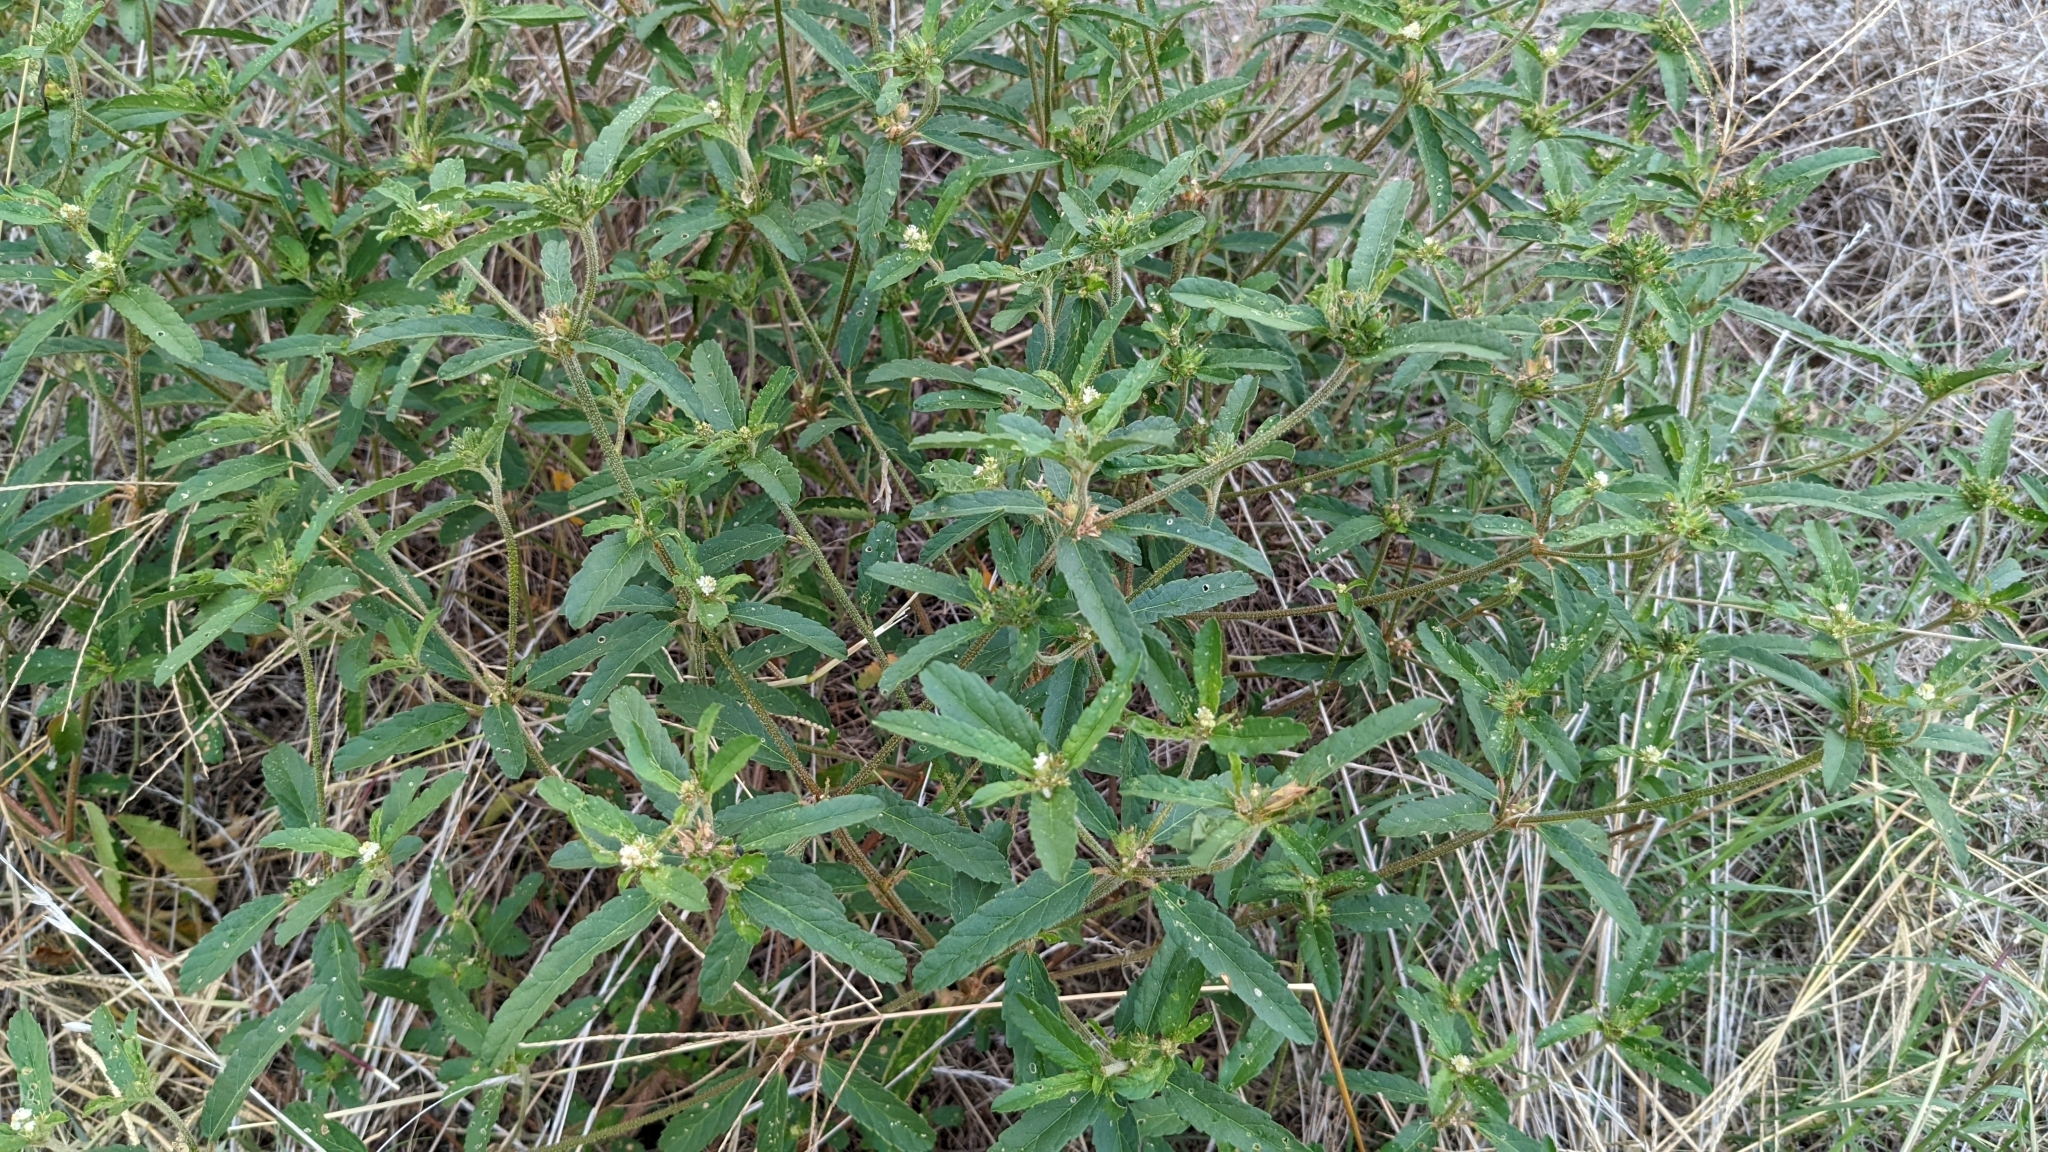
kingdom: Plantae
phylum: Tracheophyta
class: Magnoliopsida
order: Malpighiales
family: Euphorbiaceae
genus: Croton
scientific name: Croton glandulosus
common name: Tropic croton
